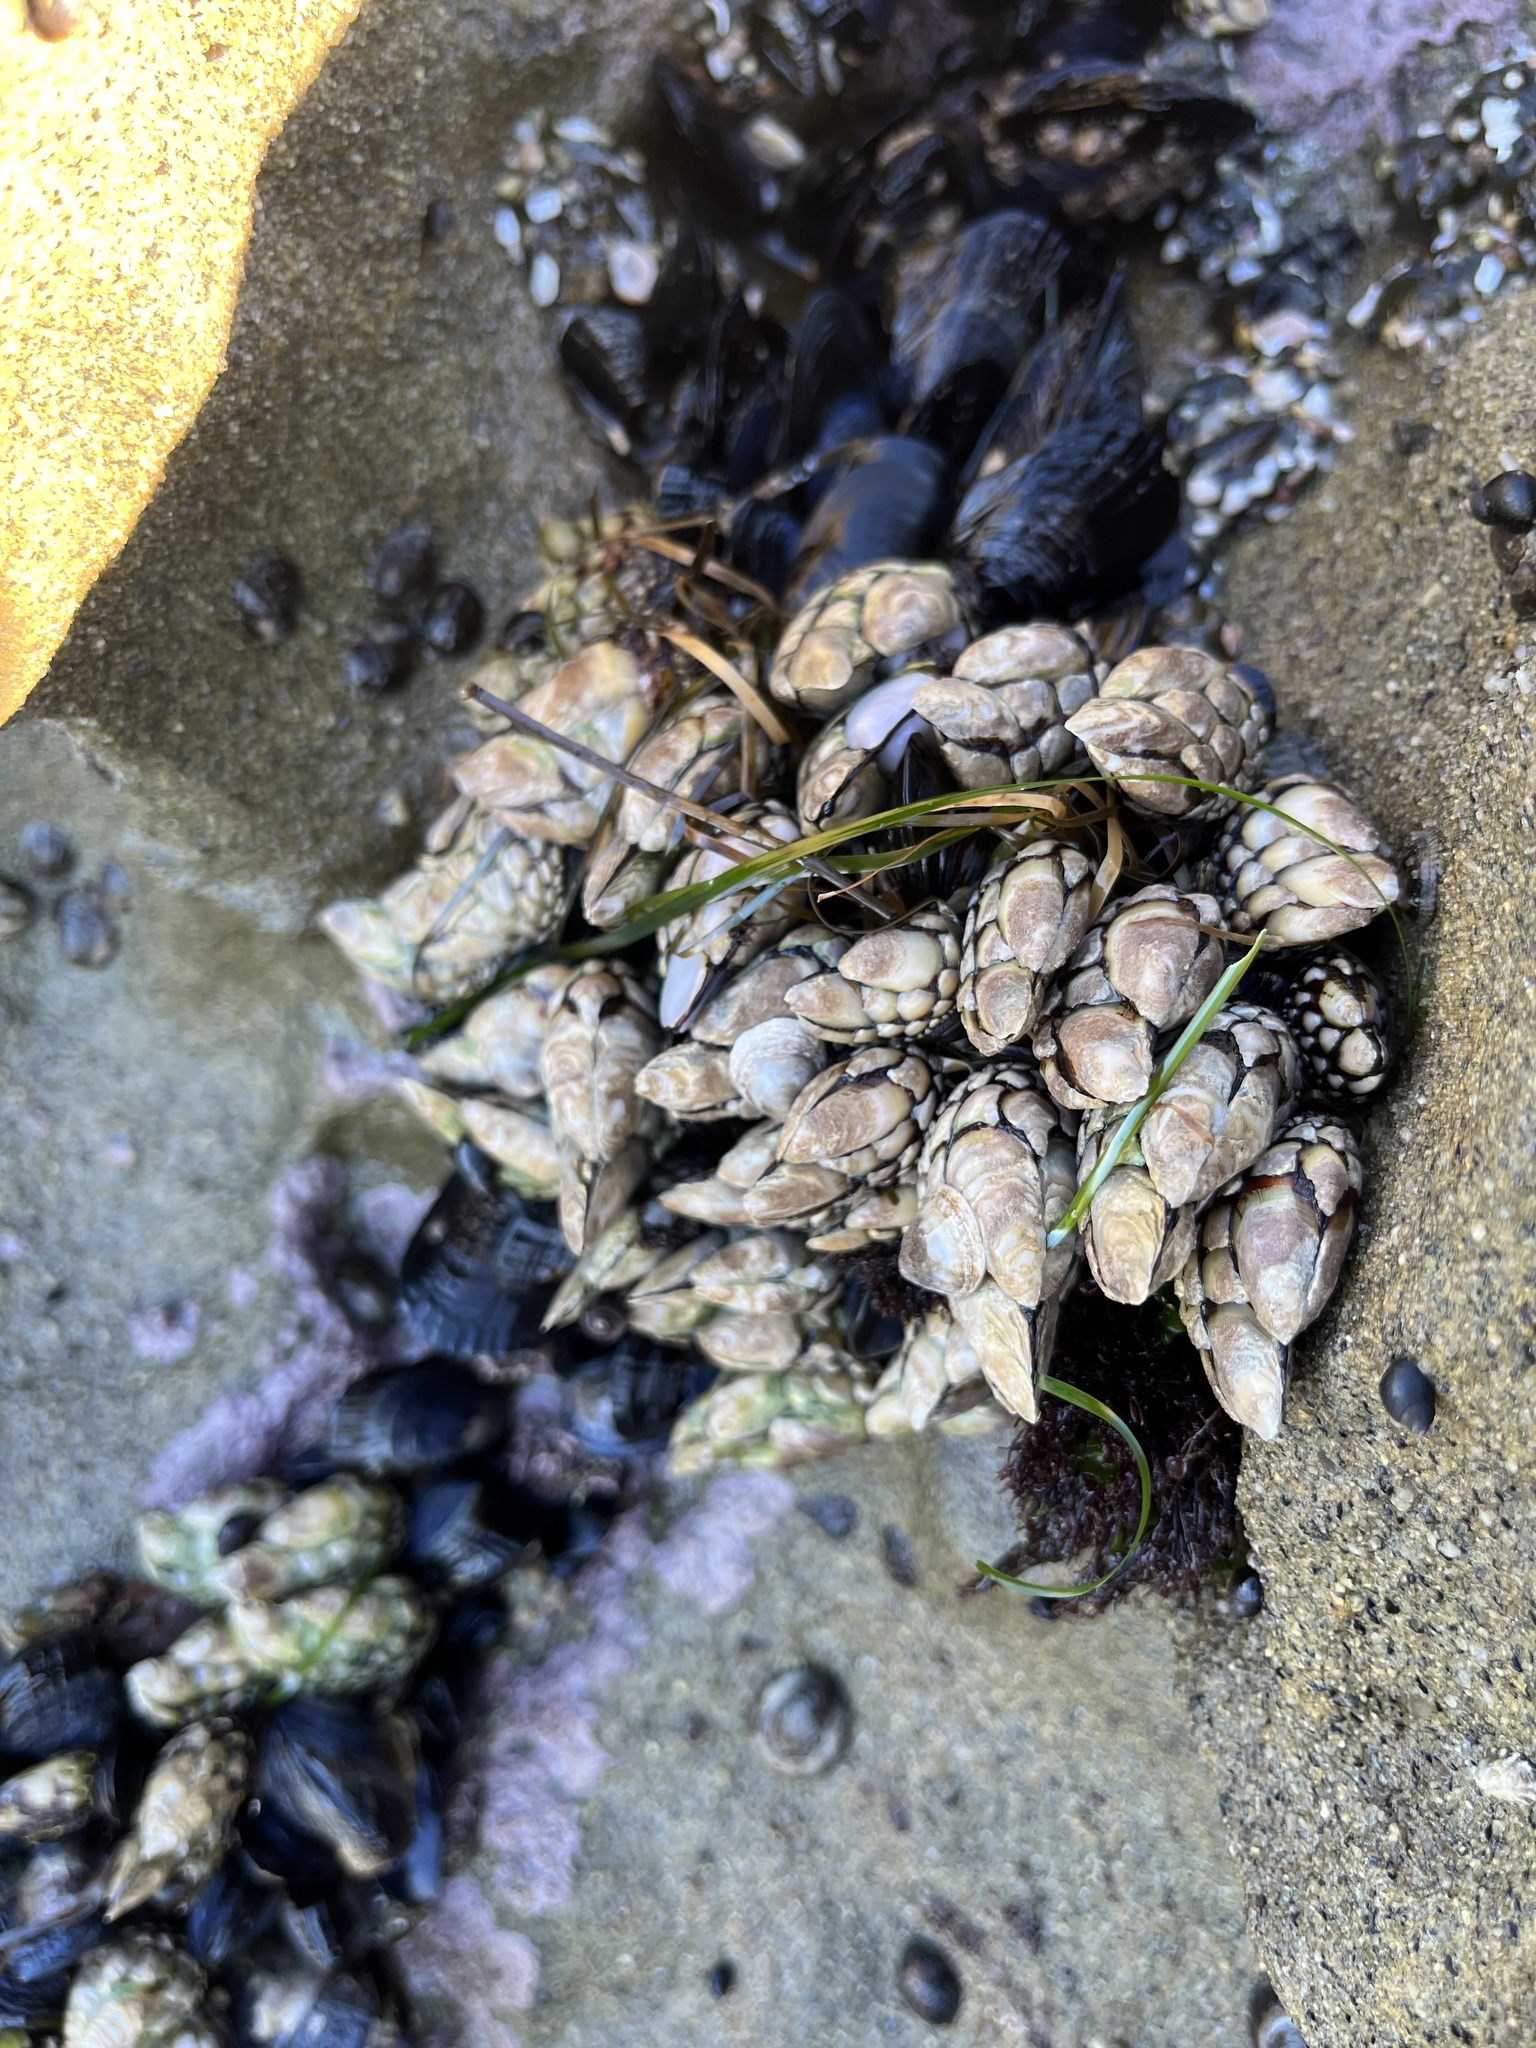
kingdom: Animalia
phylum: Arthropoda
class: Maxillopoda
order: Pedunculata
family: Pollicipedidae
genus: Pollicipes
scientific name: Pollicipes polymerus
